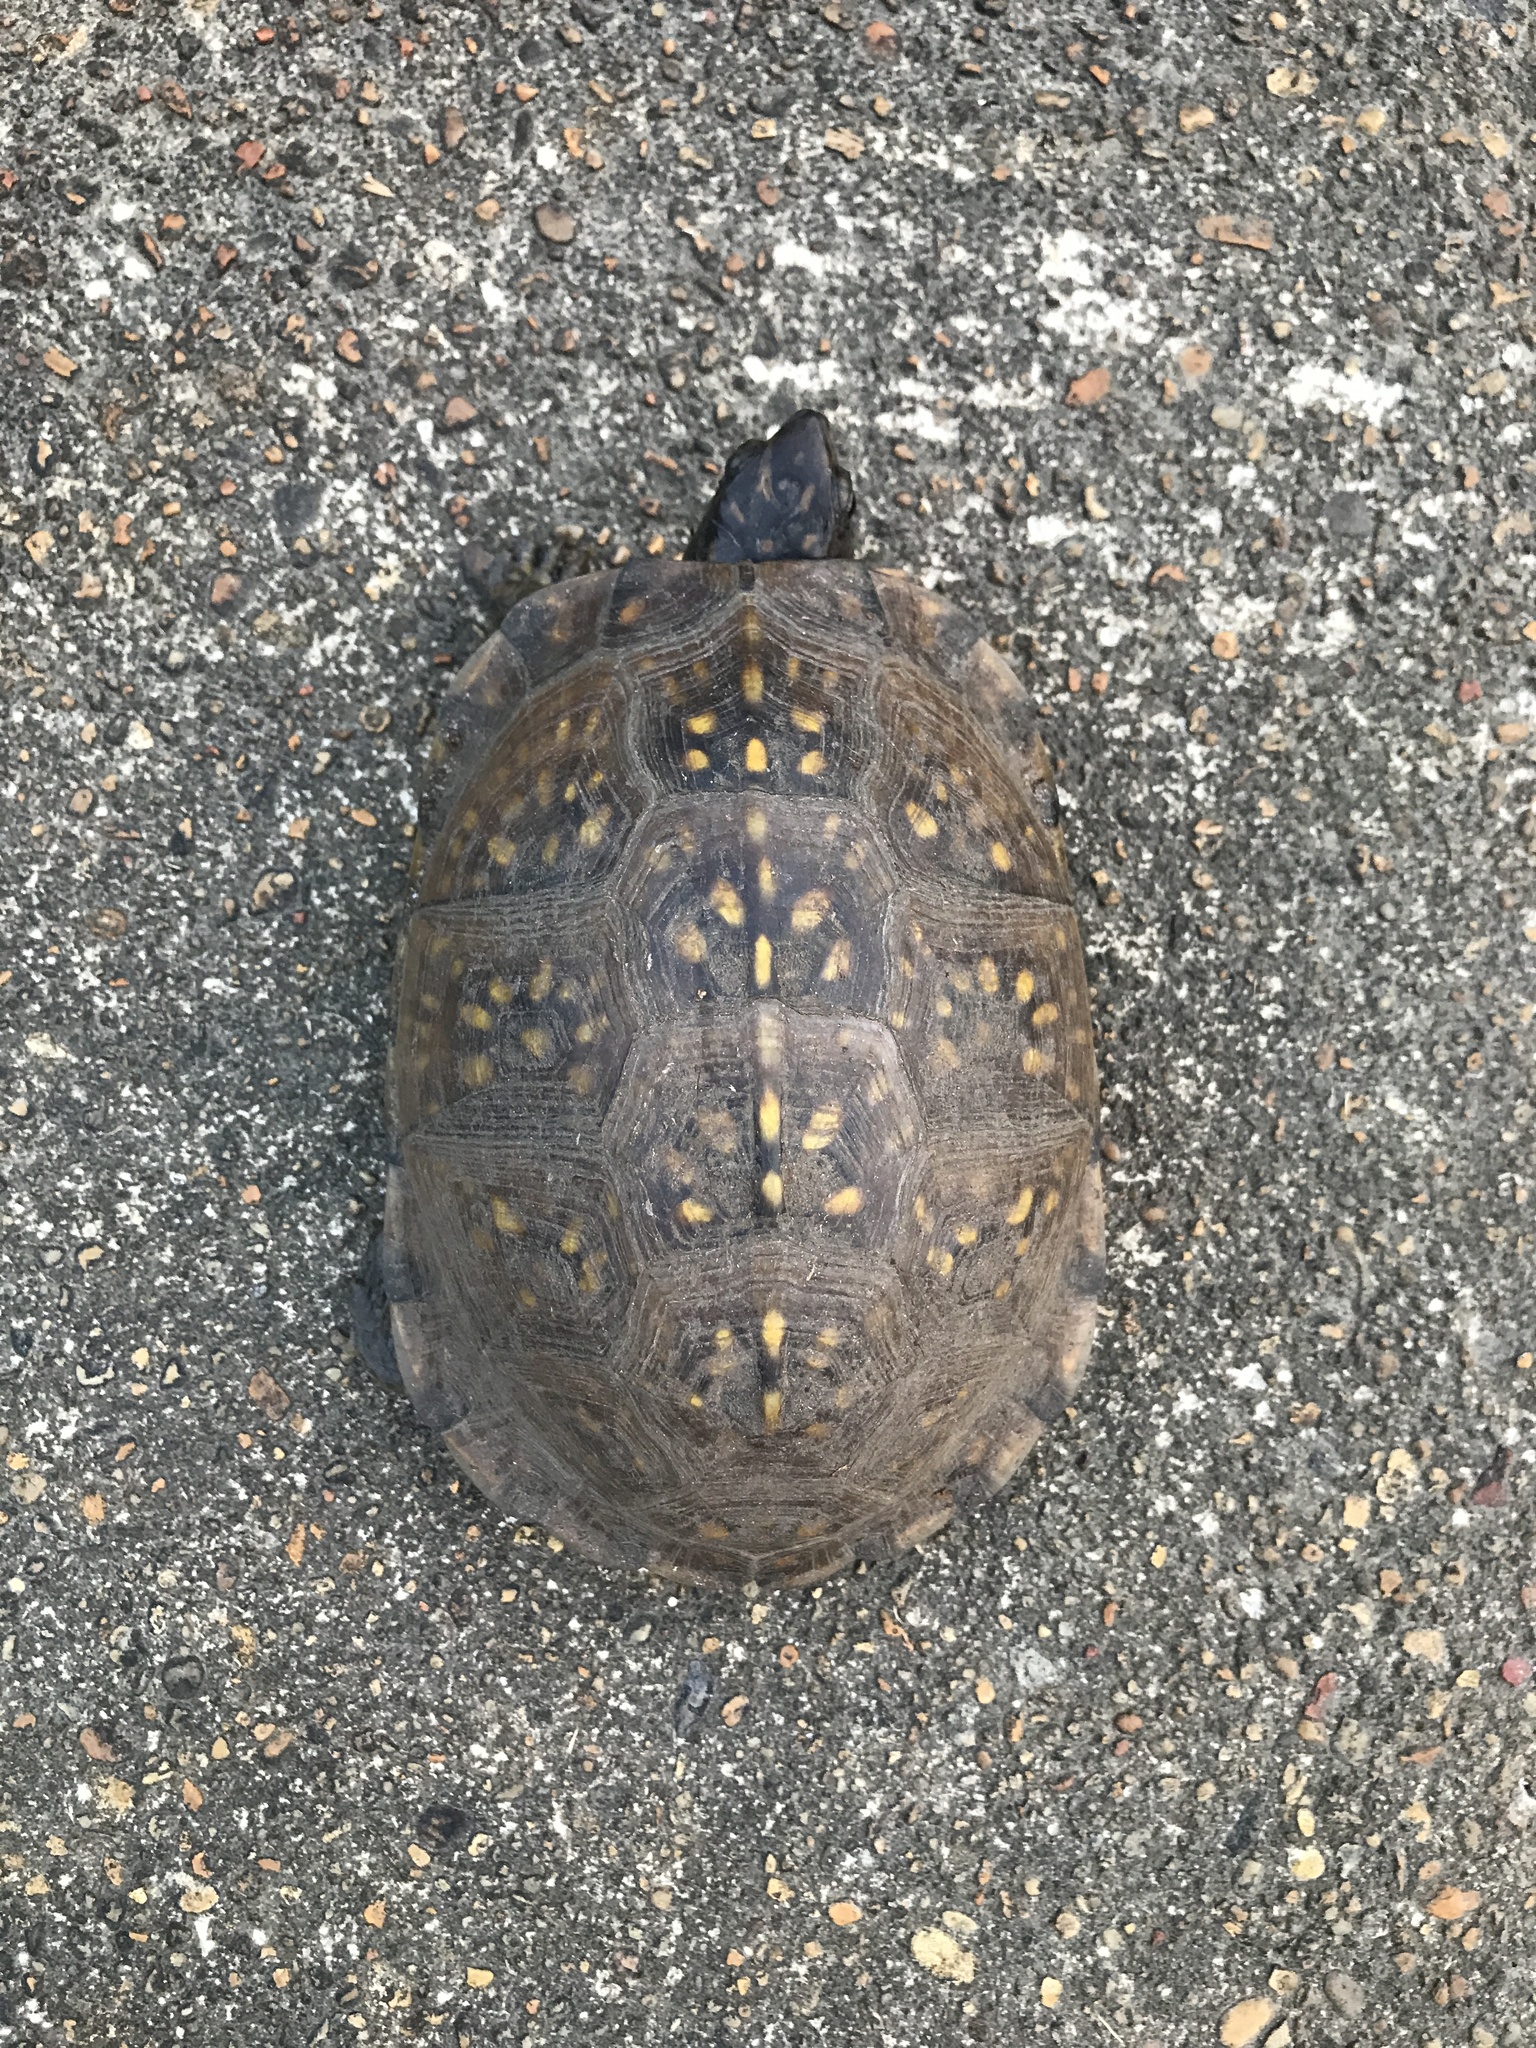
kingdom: Animalia
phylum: Chordata
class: Testudines
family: Emydidae
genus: Terrapene
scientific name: Terrapene carolina
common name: Common box turtle
